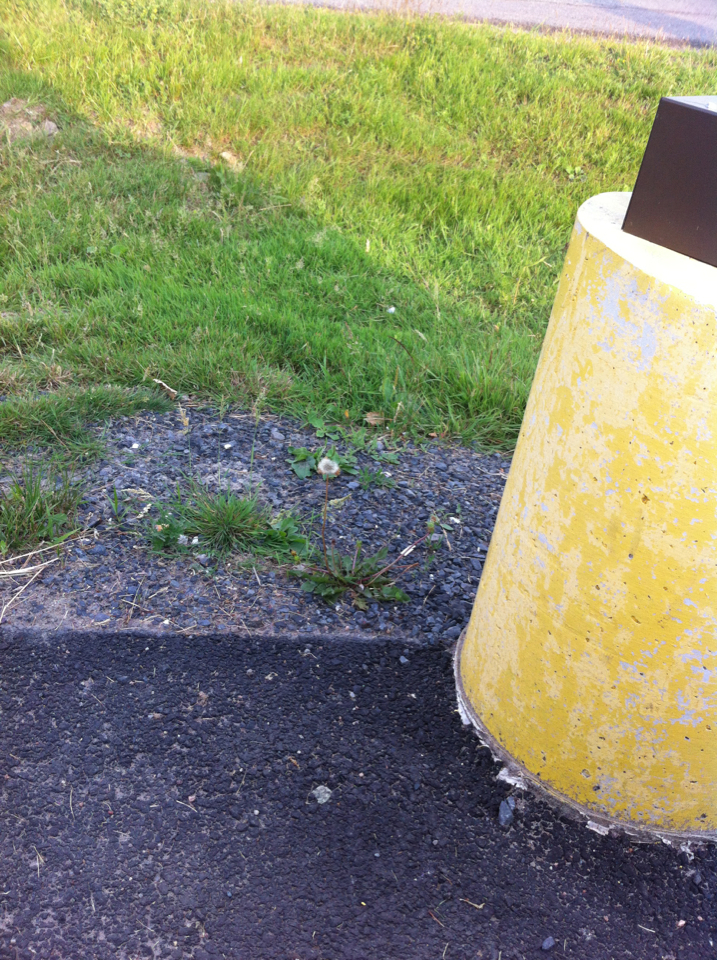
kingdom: Plantae
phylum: Tracheophyta
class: Magnoliopsida
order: Asterales
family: Asteraceae
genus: Taraxacum
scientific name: Taraxacum
